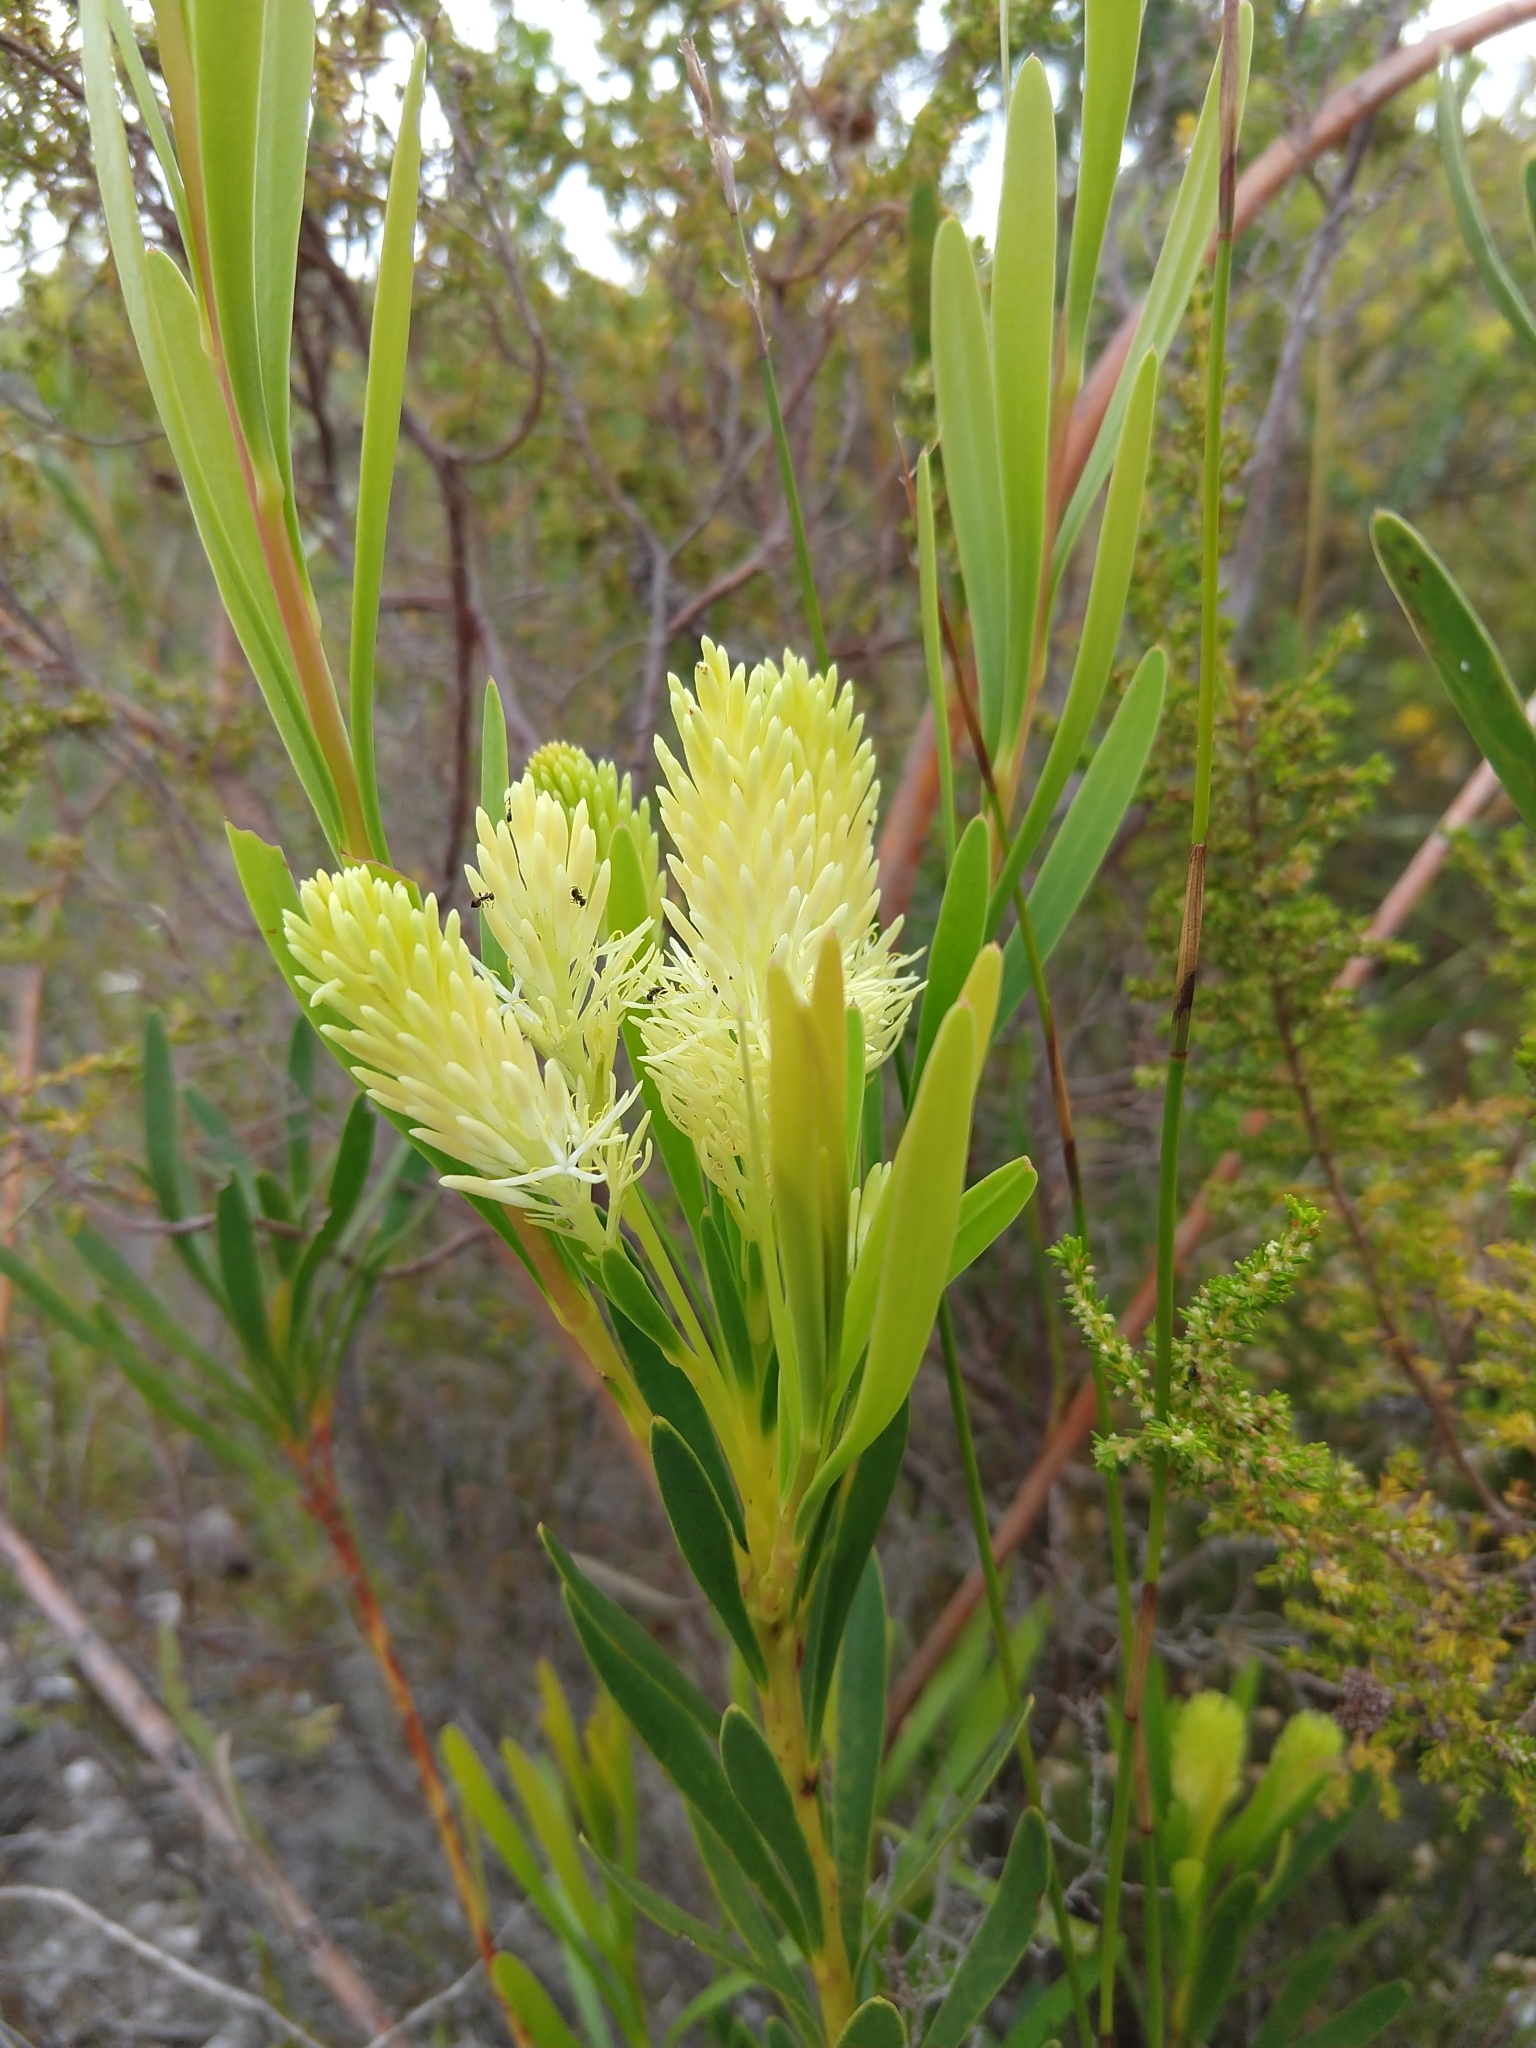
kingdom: Plantae
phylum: Tracheophyta
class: Magnoliopsida
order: Proteales
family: Proteaceae
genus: Aulax
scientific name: Aulax umbellata
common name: Broad-leaf featherbush
